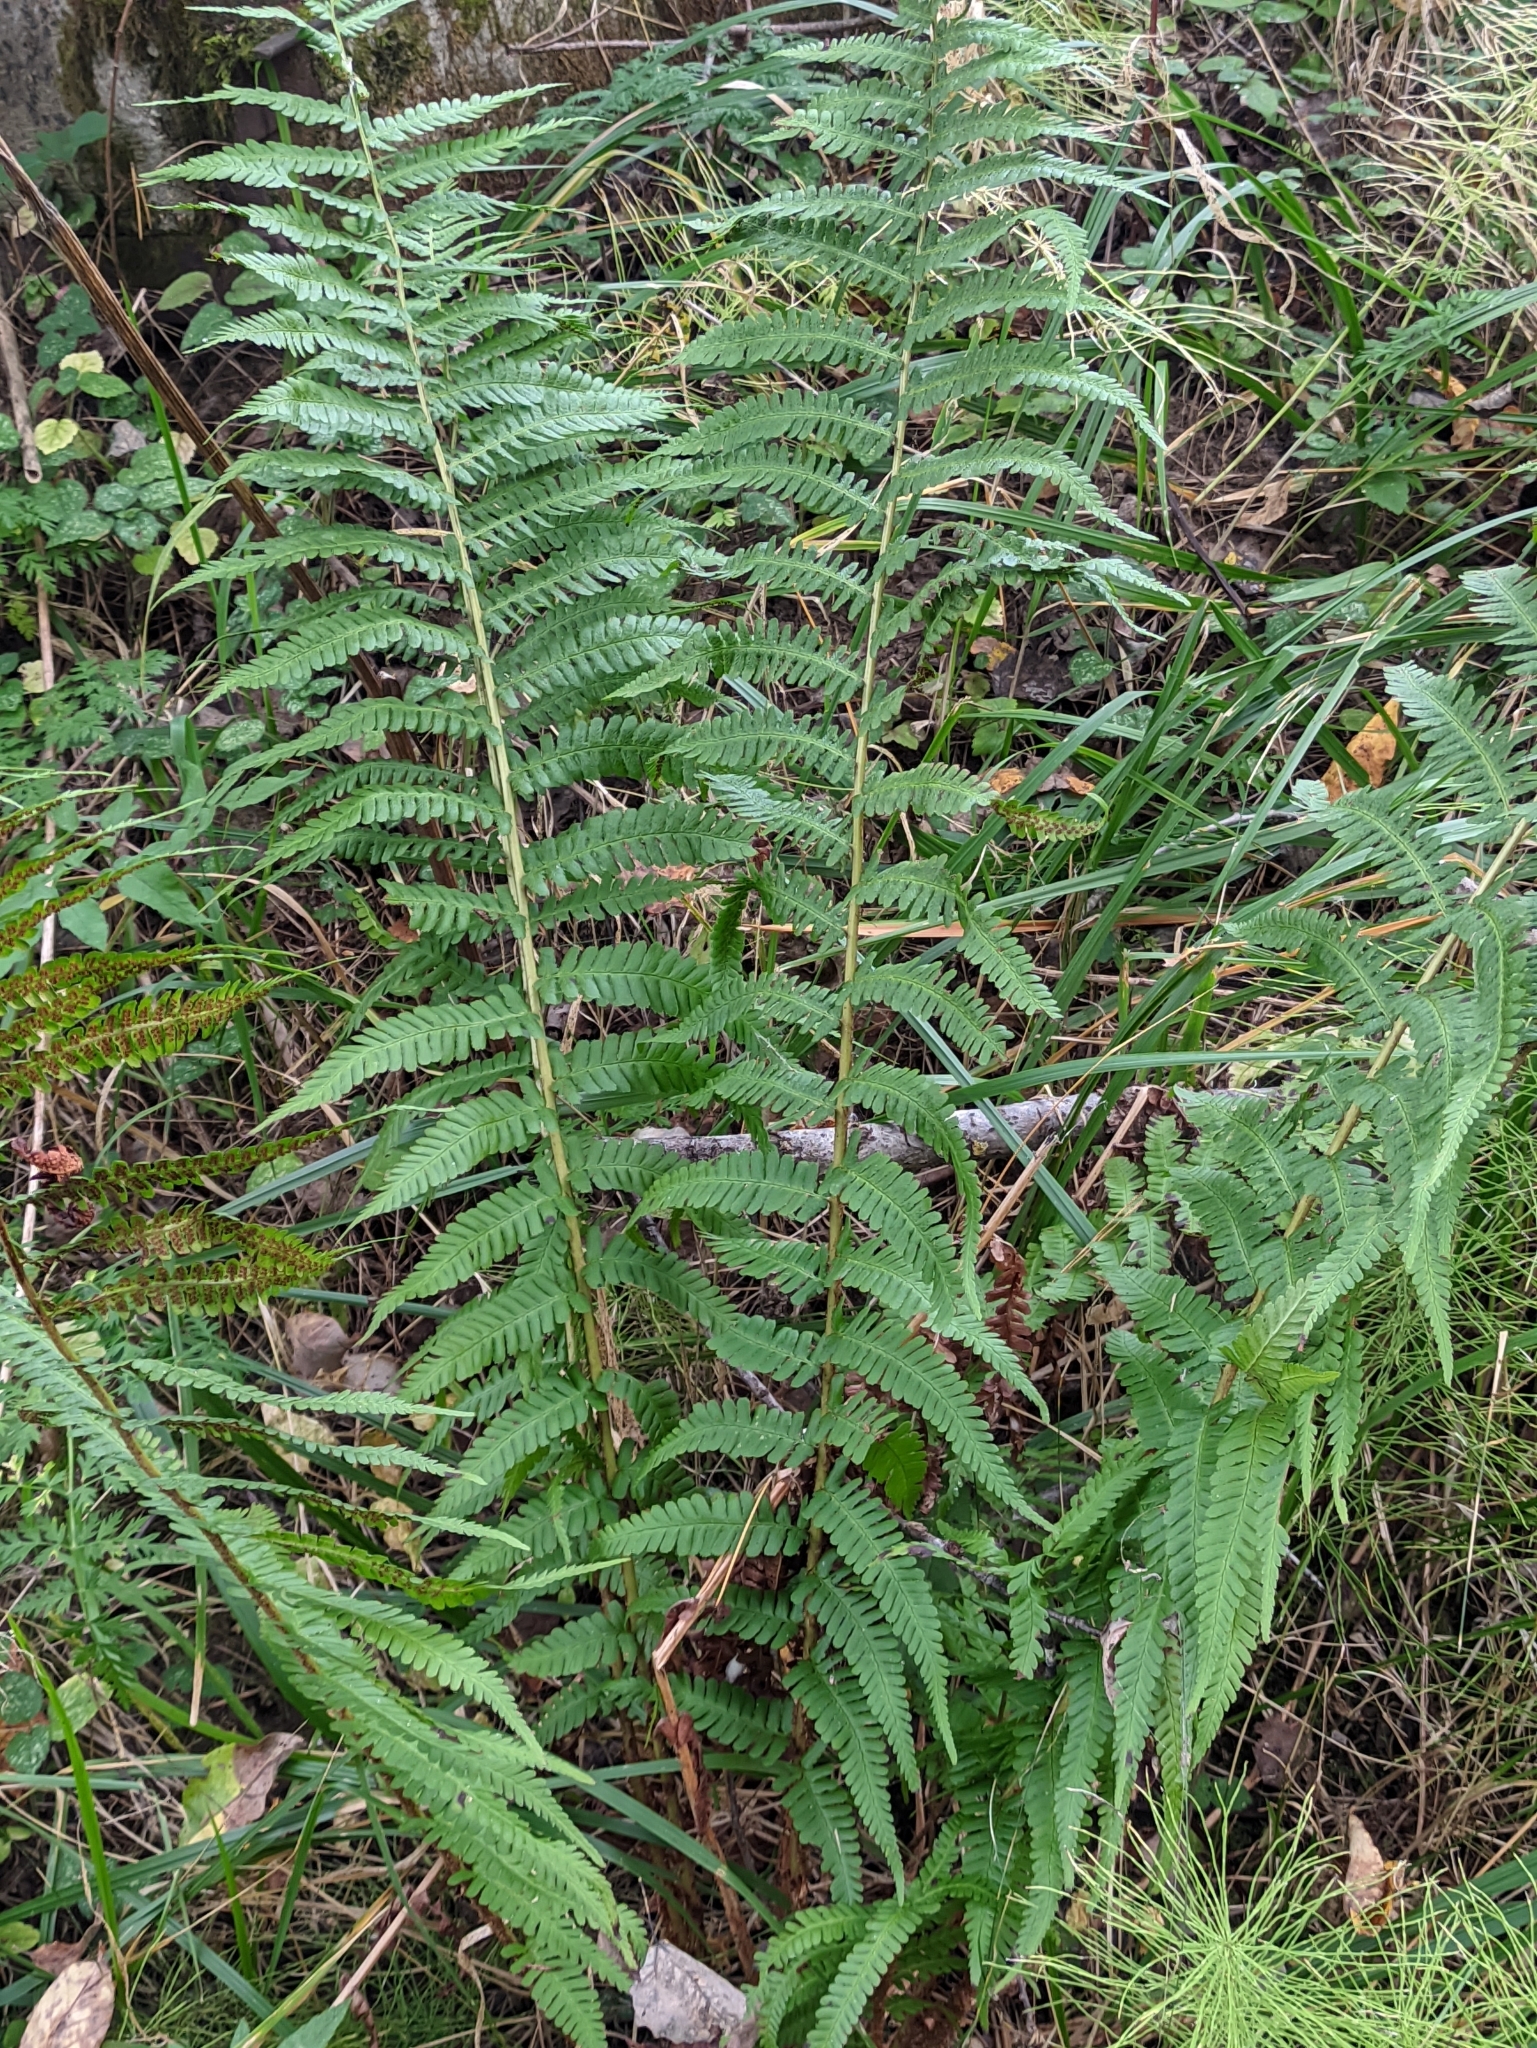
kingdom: Plantae
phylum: Tracheophyta
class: Polypodiopsida
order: Polypodiales
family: Dryopteridaceae
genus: Dryopteris
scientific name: Dryopteris filix-mas
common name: Male fern
